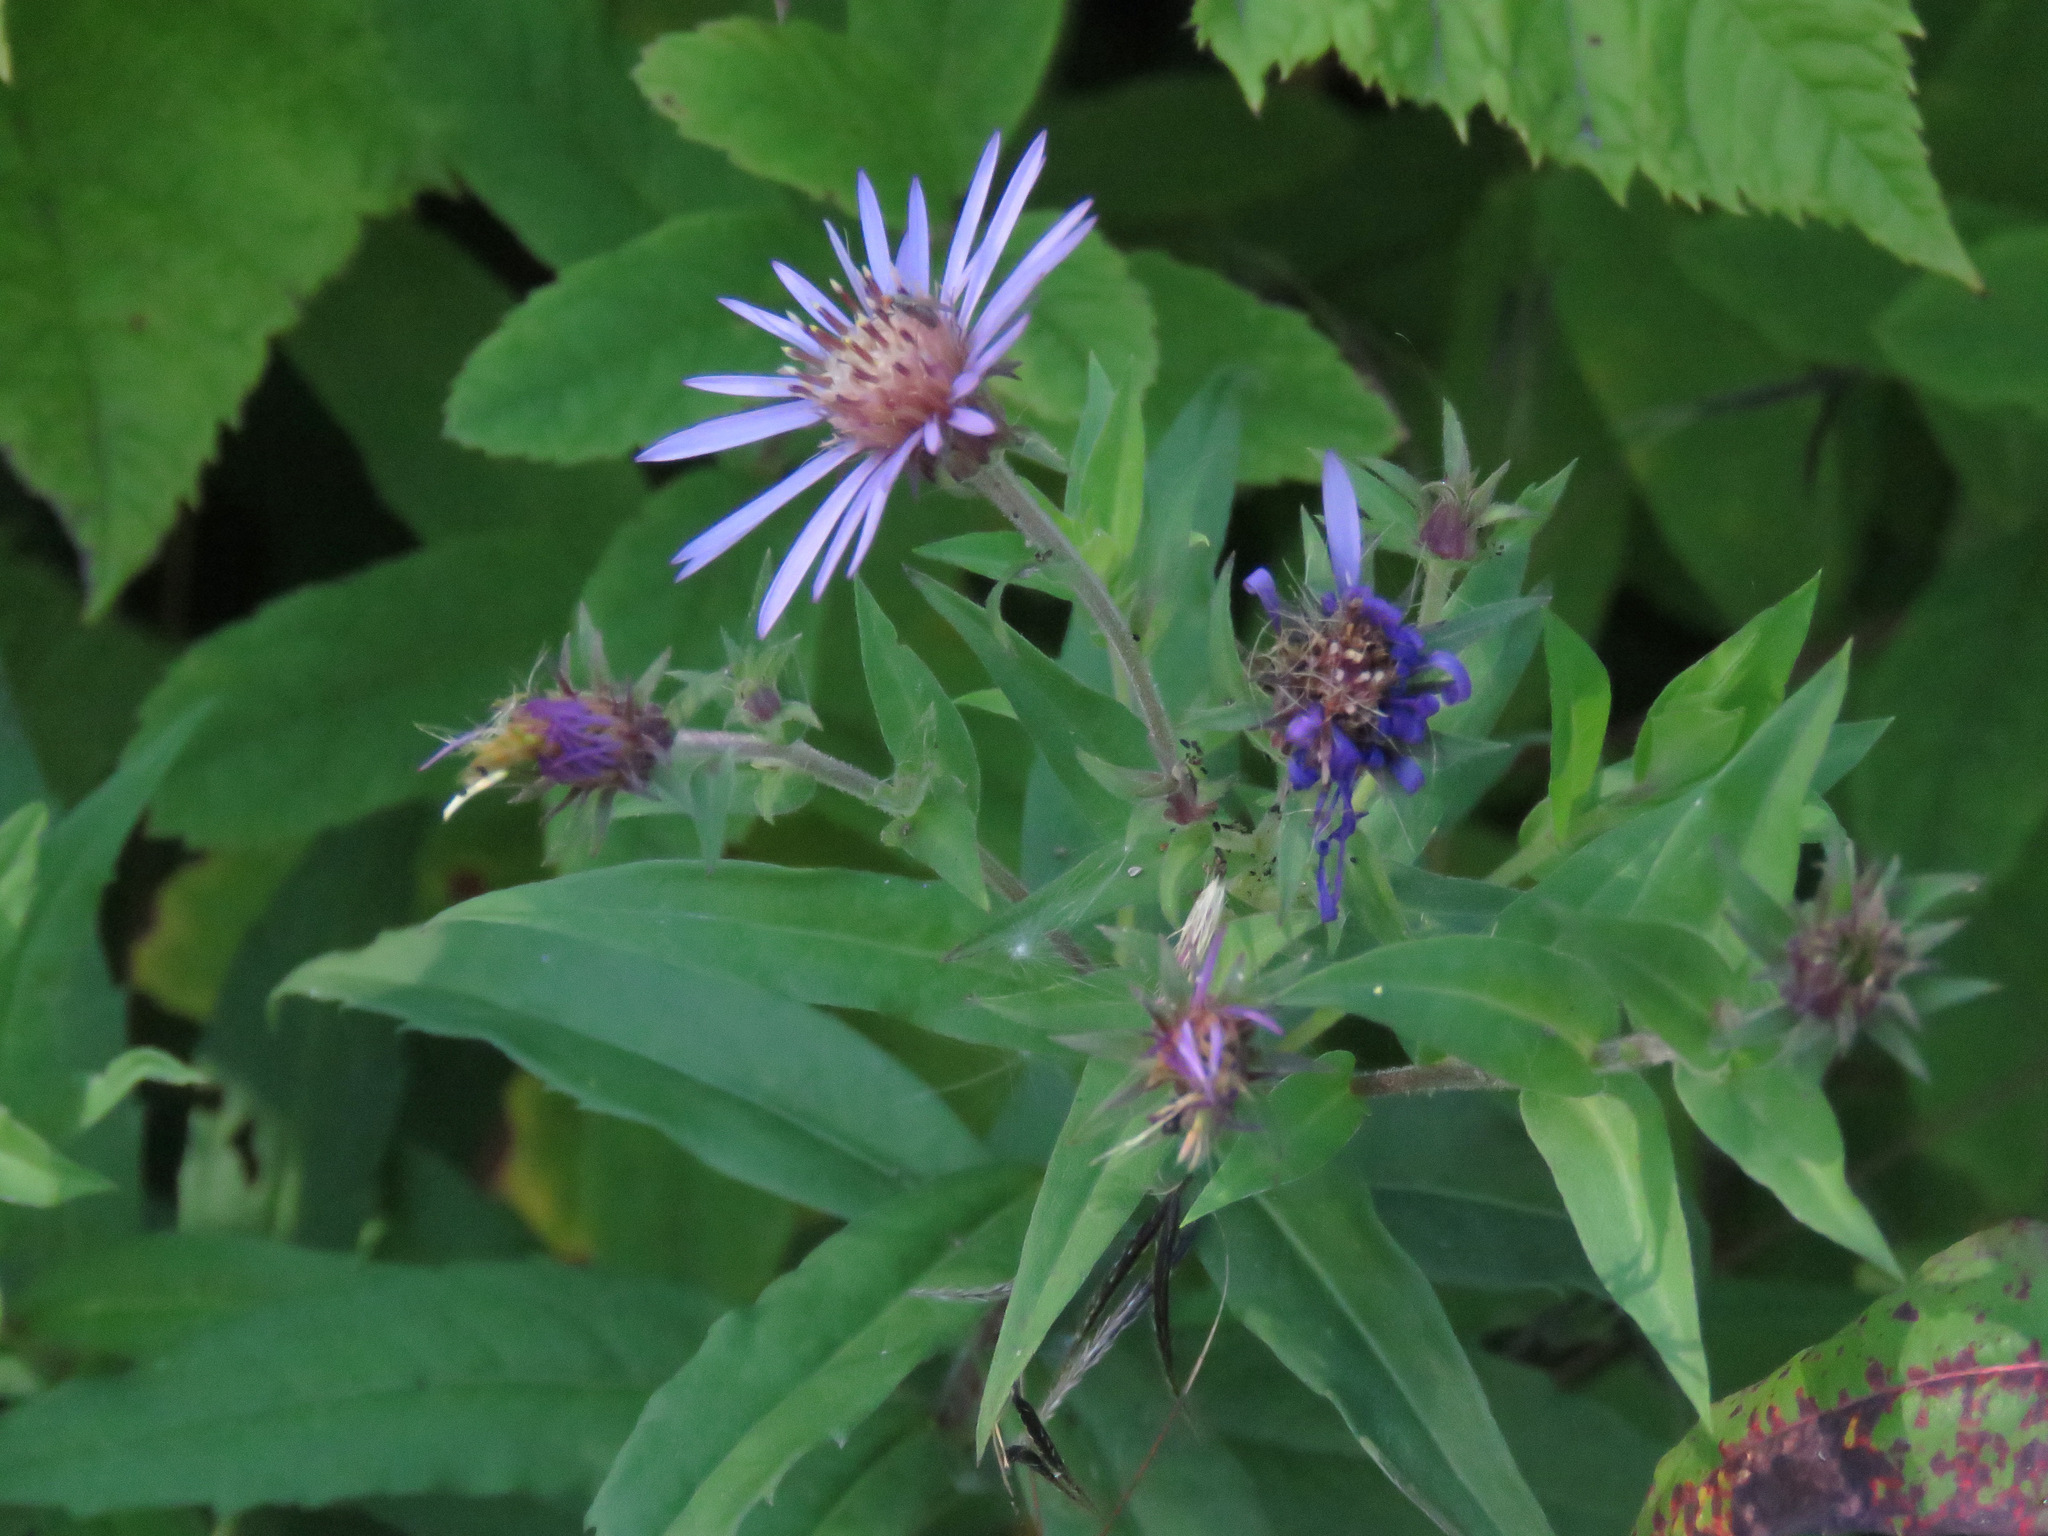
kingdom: Plantae
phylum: Tracheophyta
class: Magnoliopsida
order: Asterales
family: Asteraceae
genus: Canadanthus
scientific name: Canadanthus modestus
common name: Great northern aster
